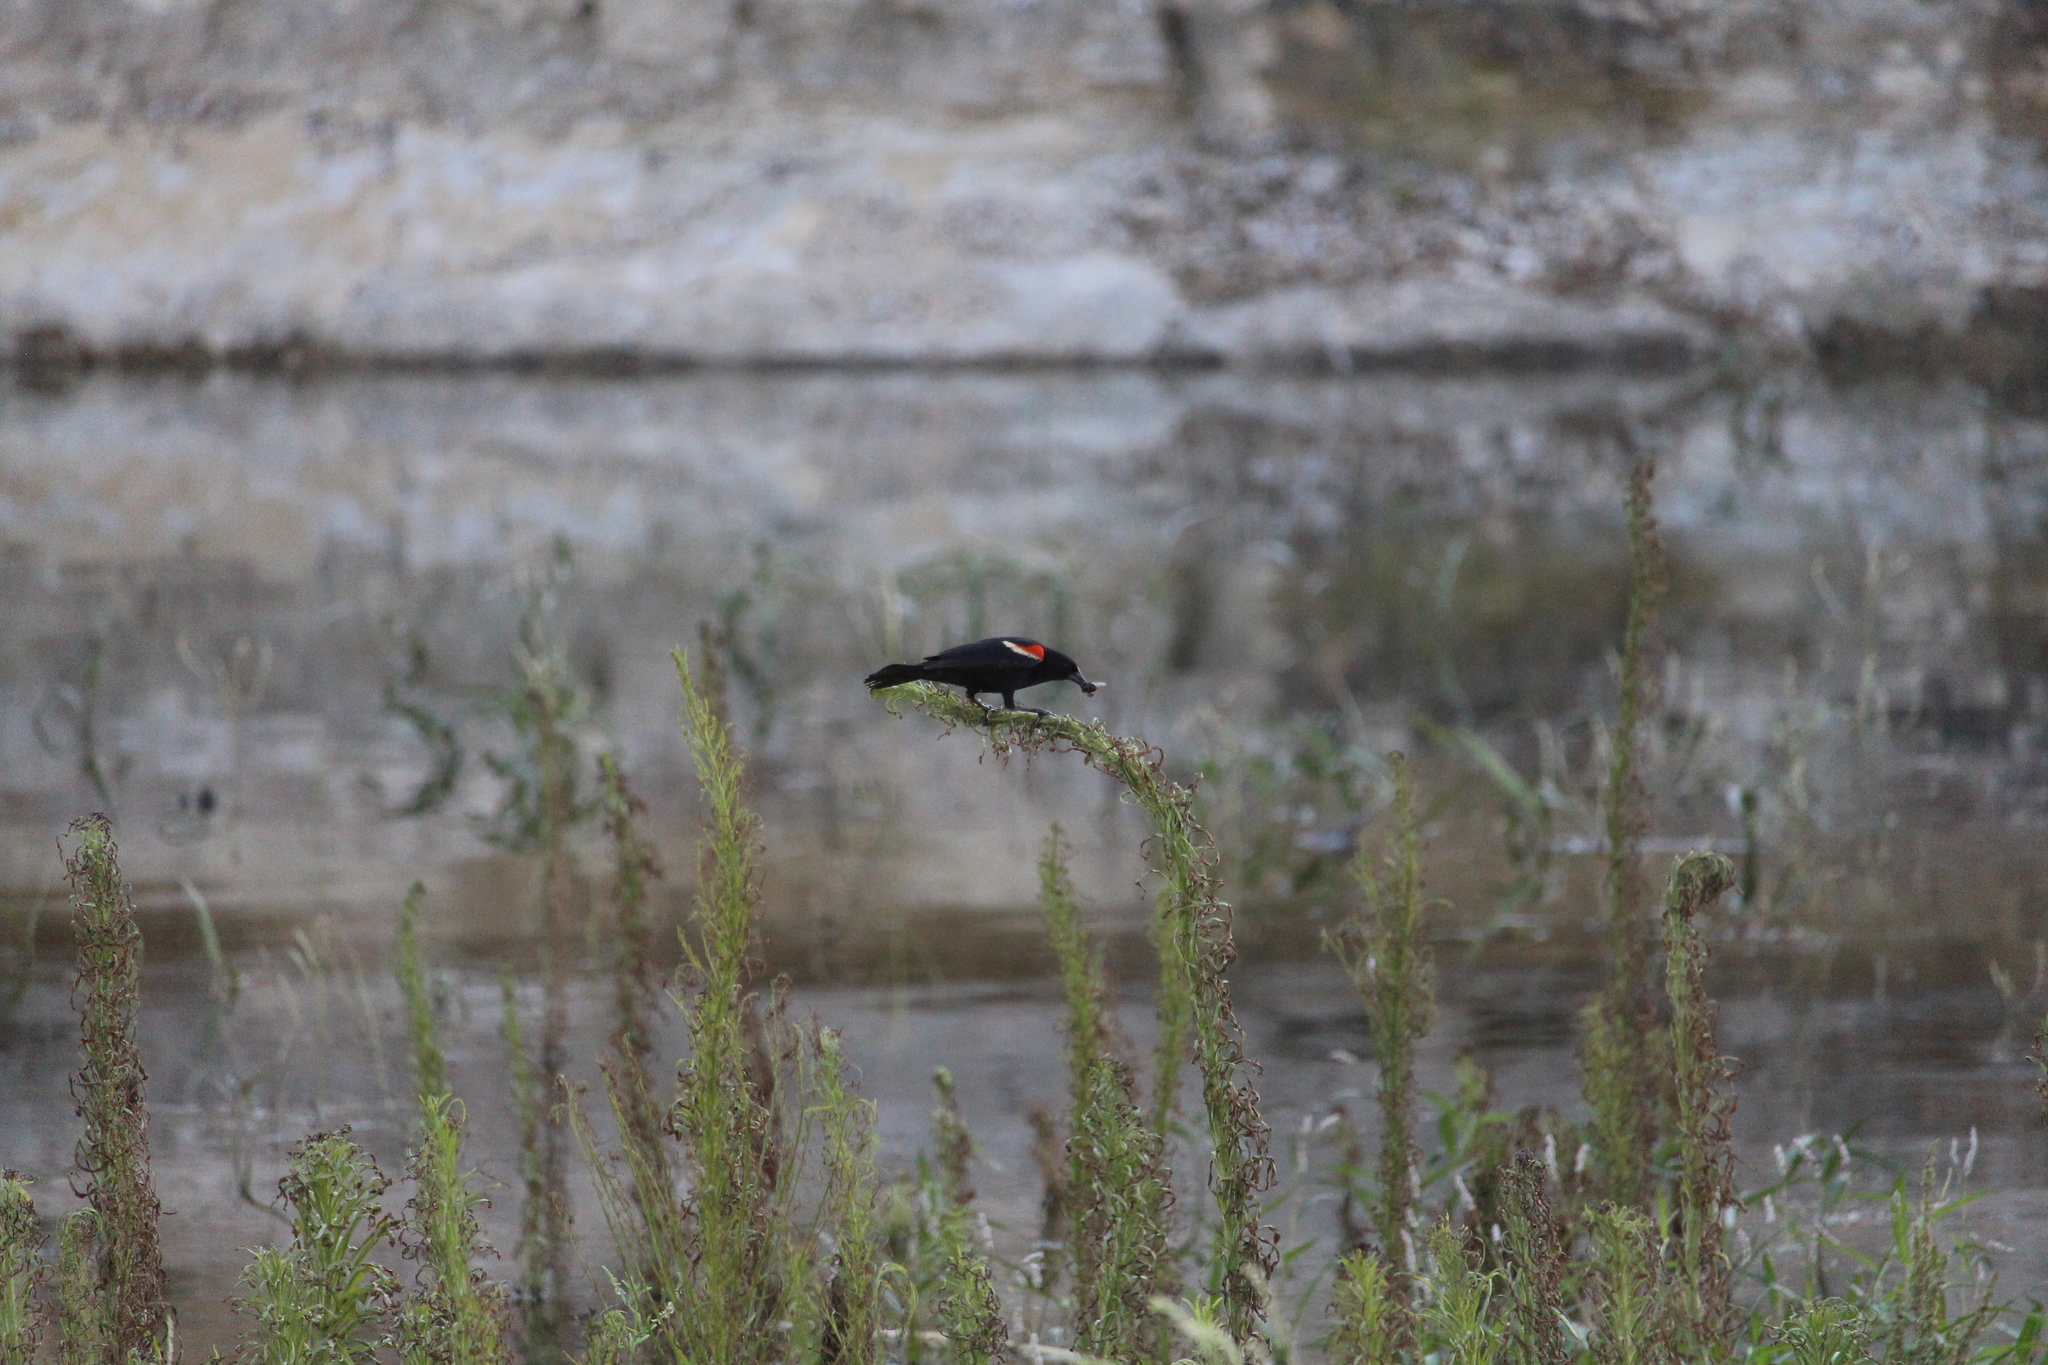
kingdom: Animalia
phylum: Chordata
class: Aves
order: Passeriformes
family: Icteridae
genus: Agelaius
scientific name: Agelaius phoeniceus
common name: Red-winged blackbird
